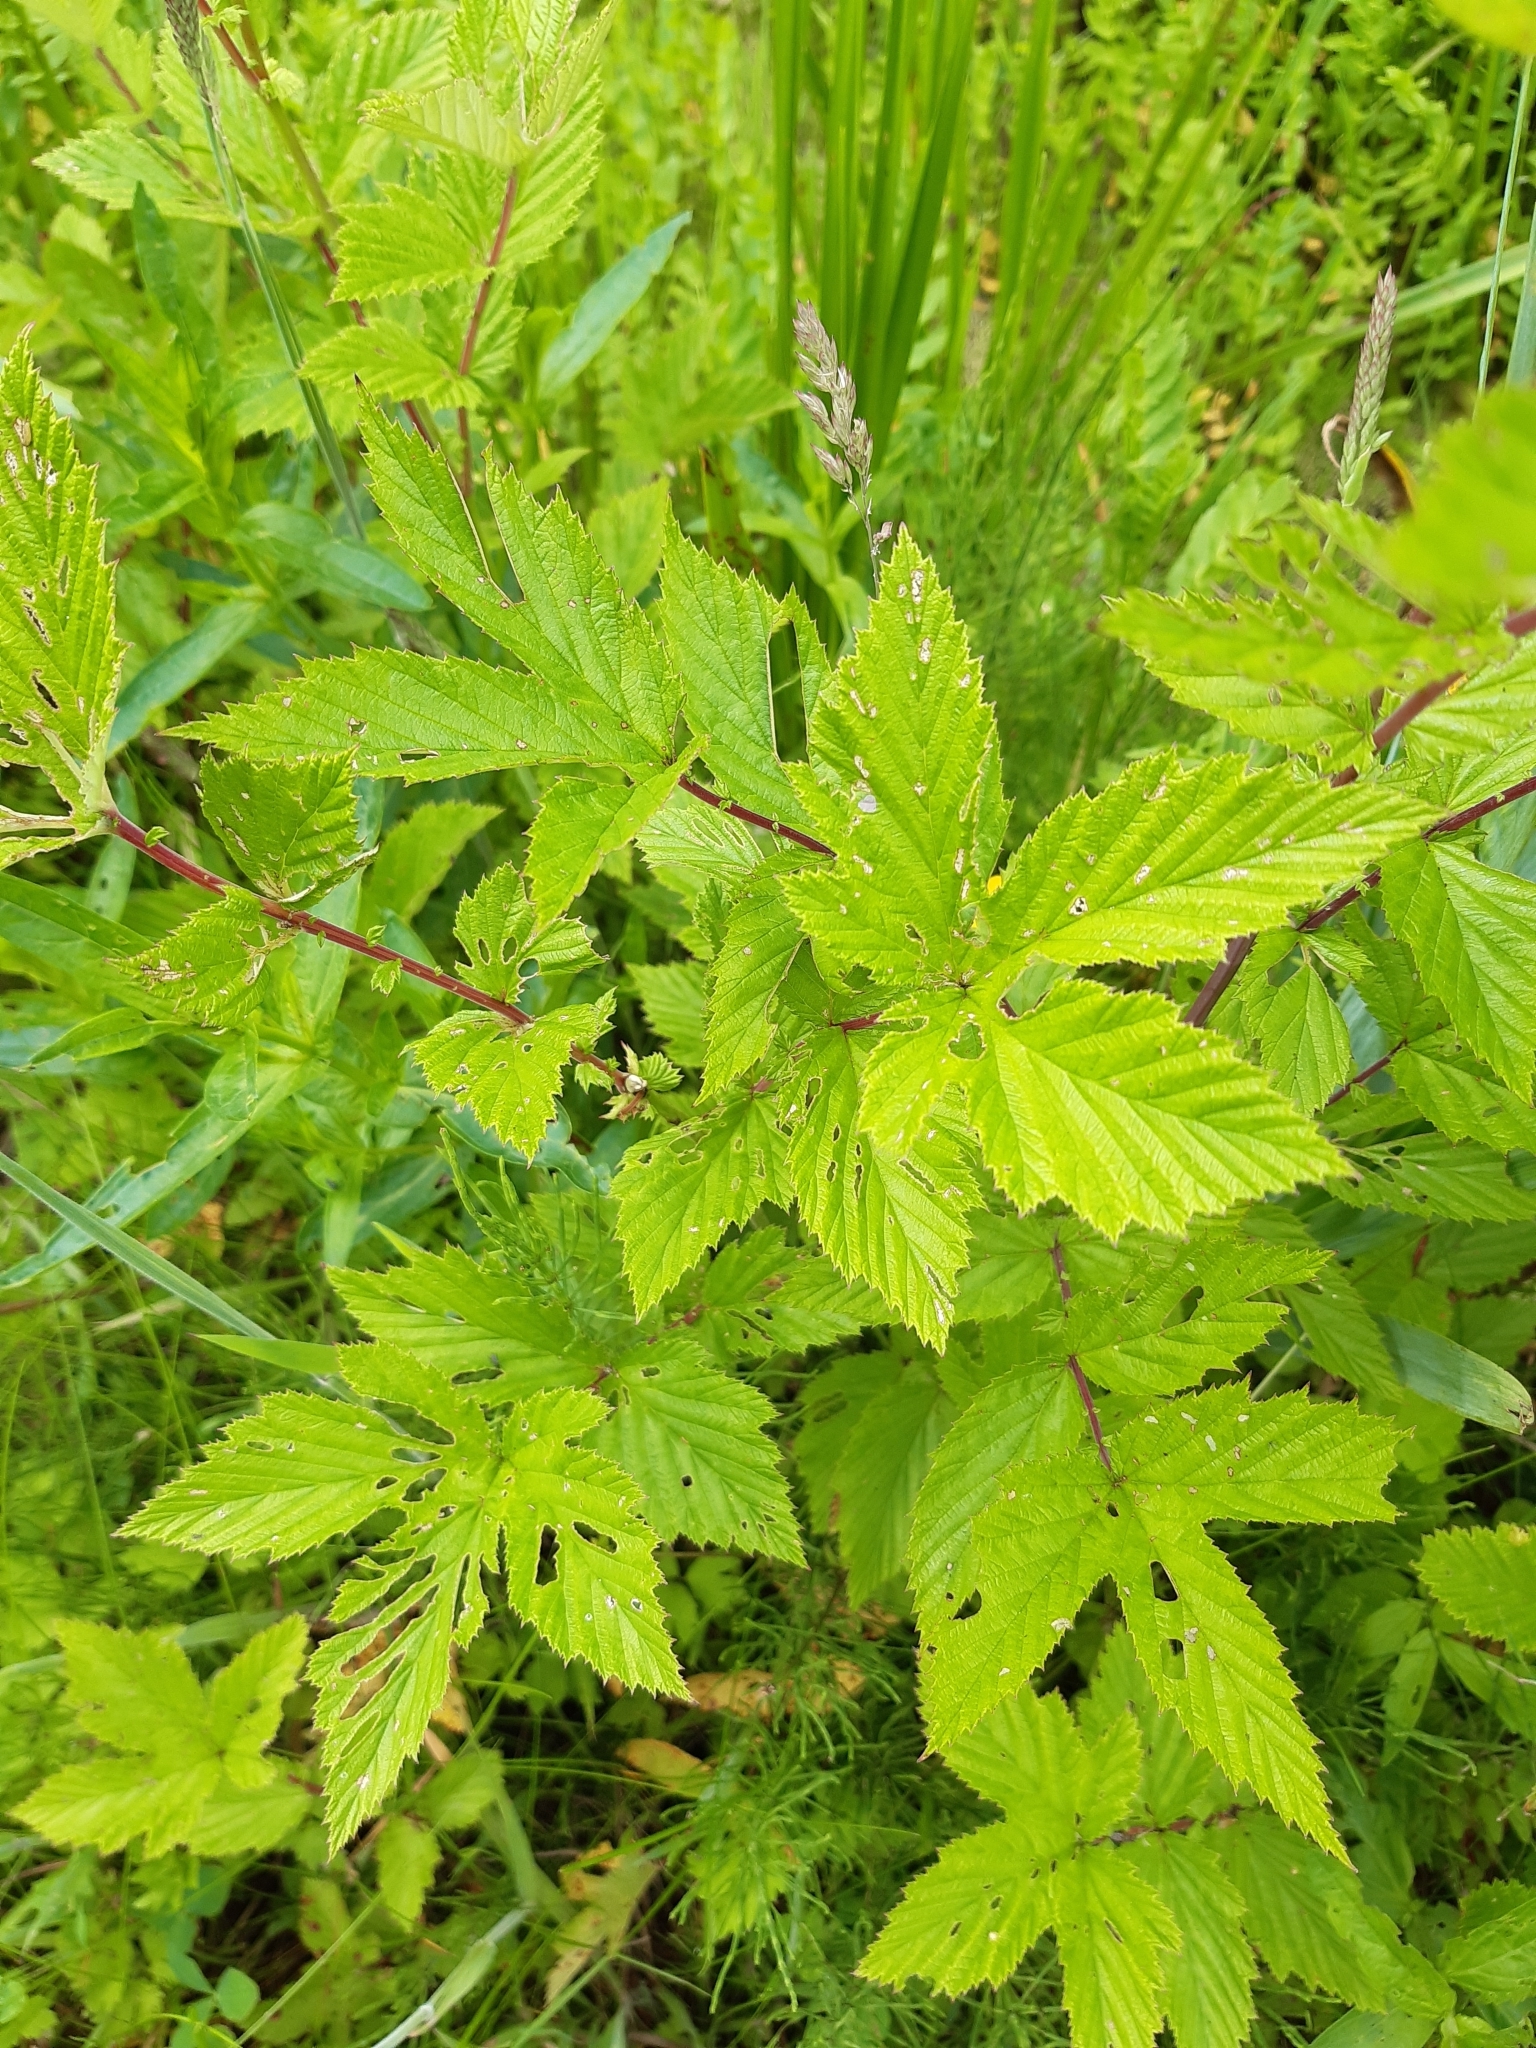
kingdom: Plantae
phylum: Tracheophyta
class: Magnoliopsida
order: Rosales
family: Rosaceae
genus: Filipendula
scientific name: Filipendula ulmaria
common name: Meadowsweet
